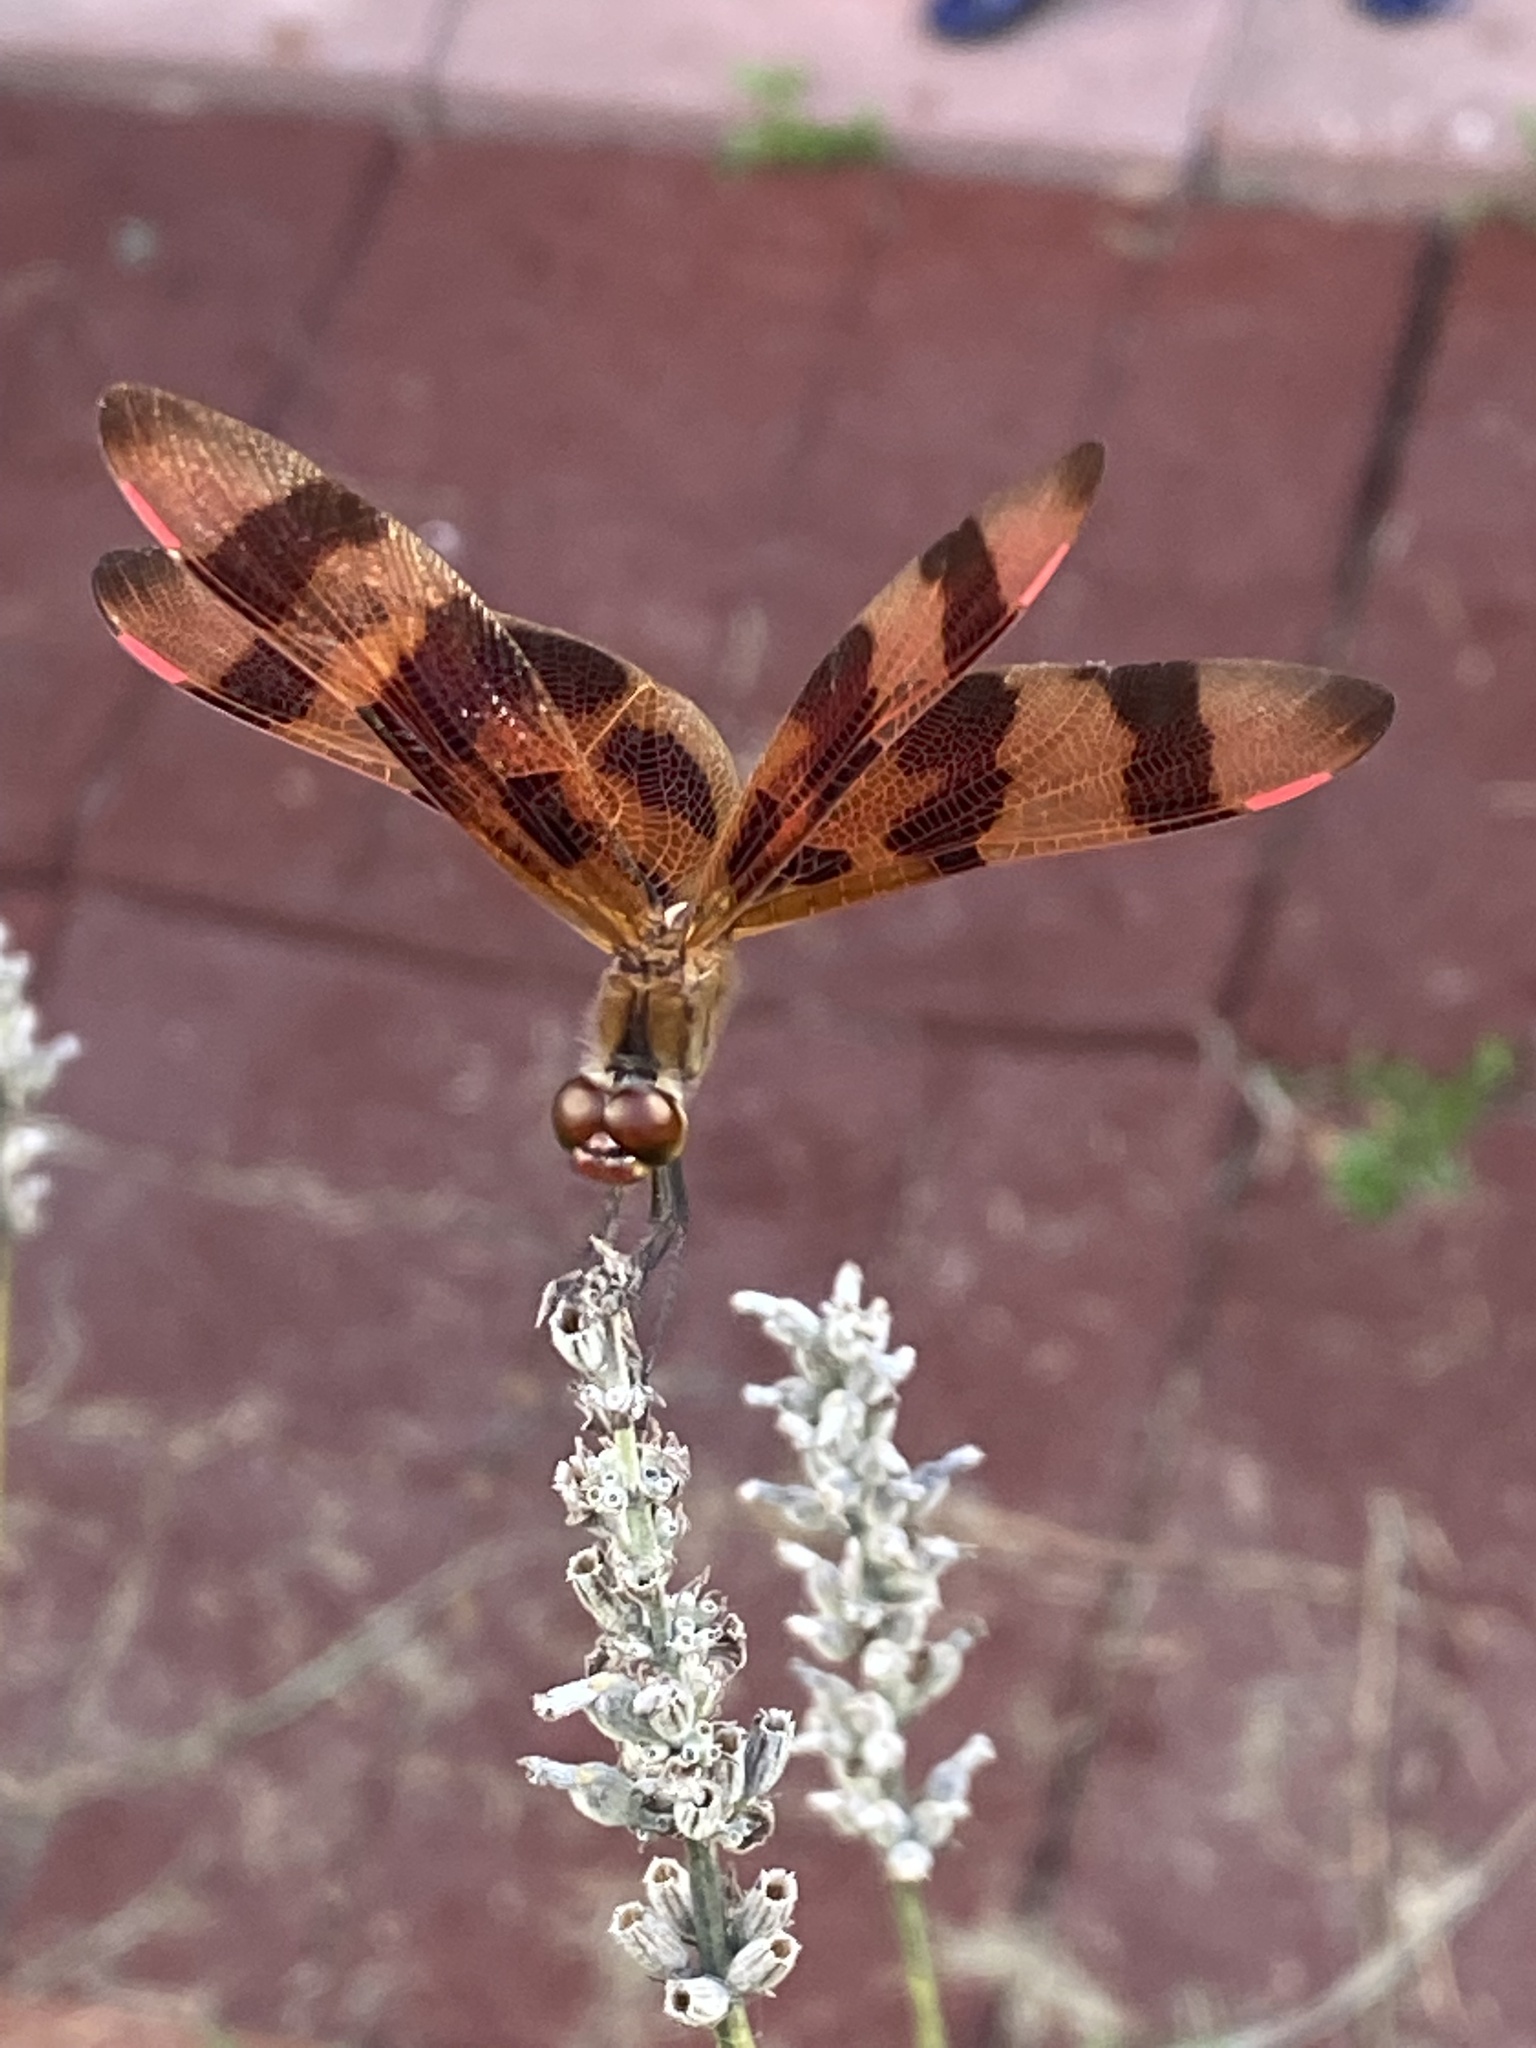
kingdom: Animalia
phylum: Arthropoda
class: Insecta
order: Odonata
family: Libellulidae
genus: Celithemis
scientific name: Celithemis eponina
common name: Halloween pennant
